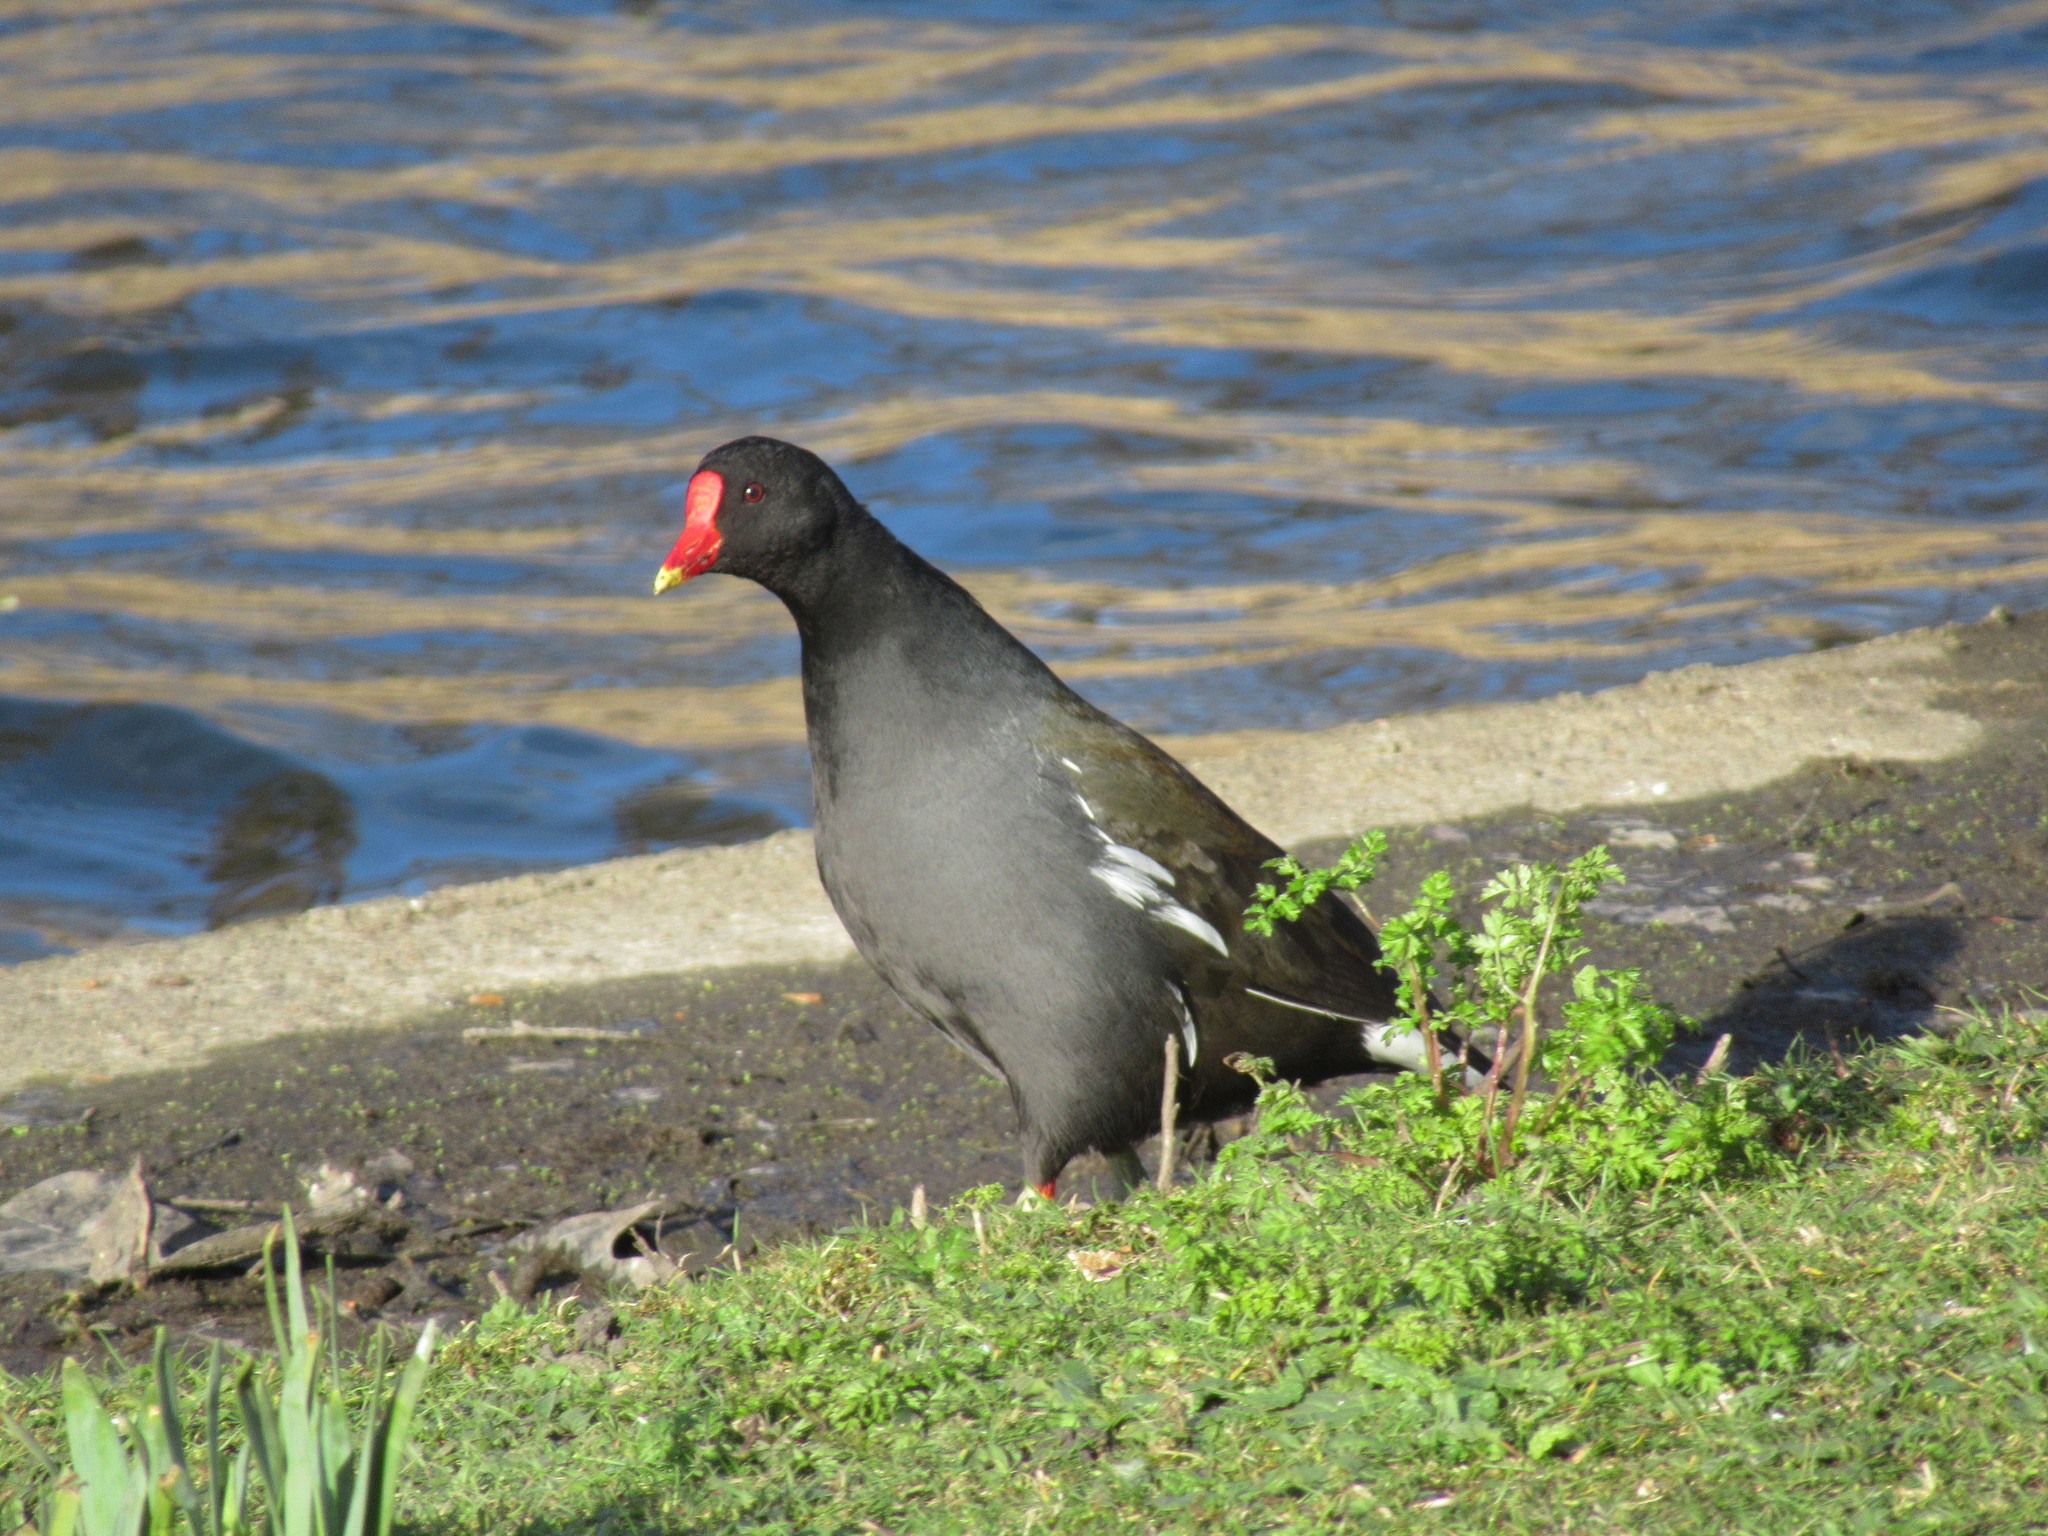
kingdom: Animalia
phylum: Chordata
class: Aves
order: Gruiformes
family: Rallidae
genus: Gallinula
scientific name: Gallinula chloropus
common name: Common moorhen
